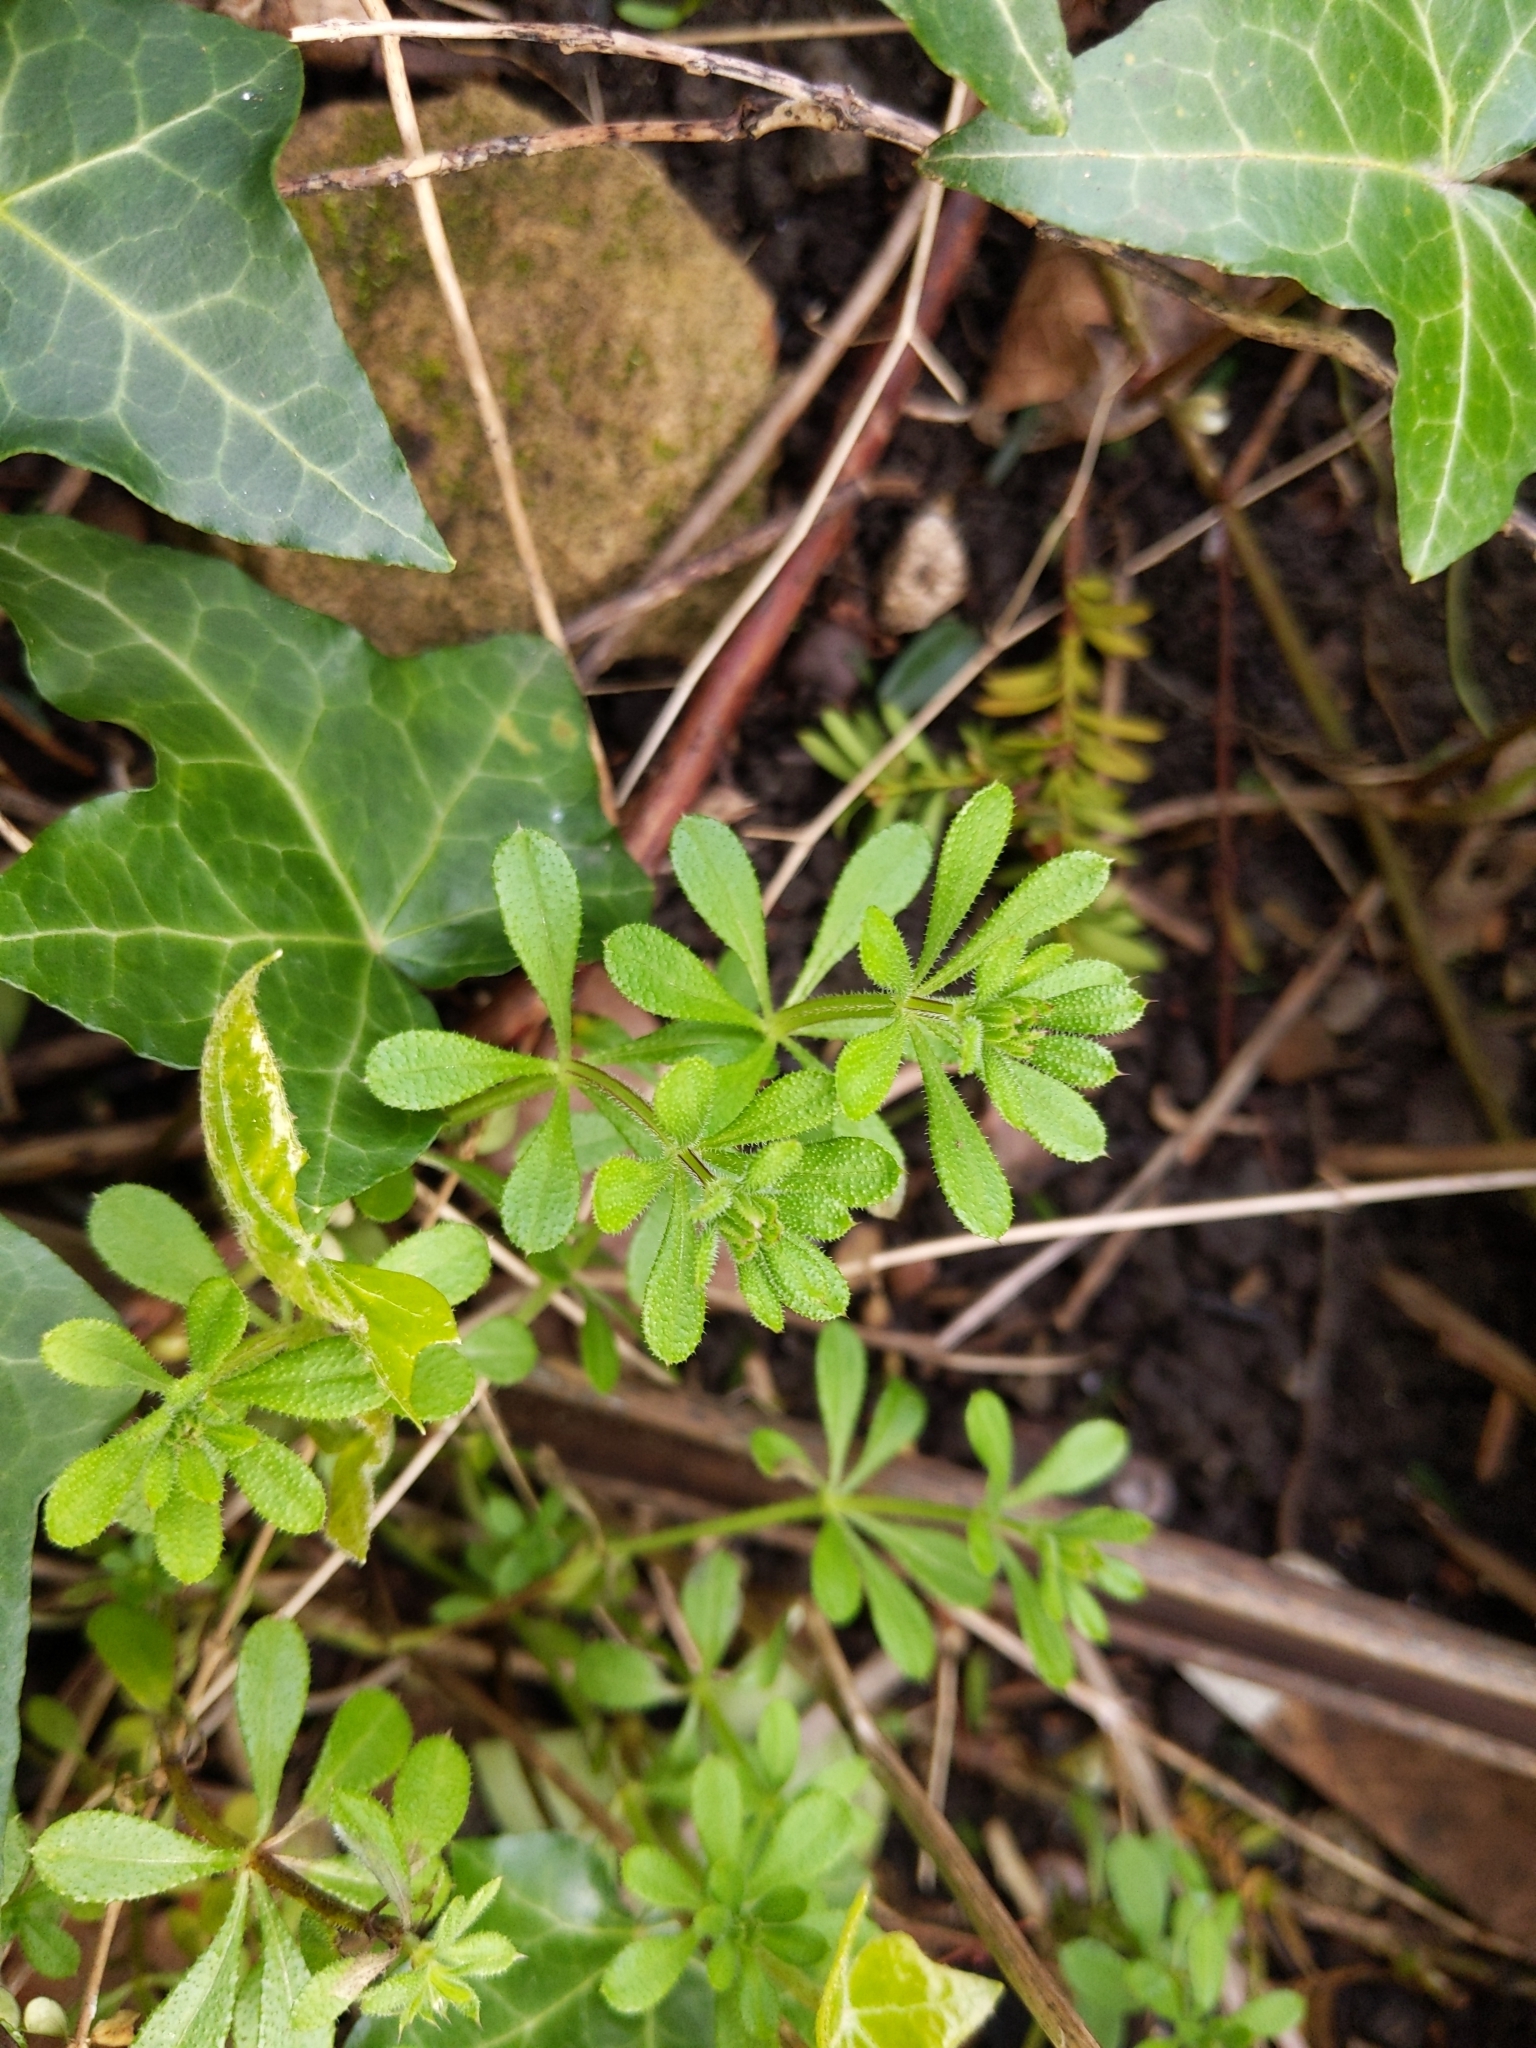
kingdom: Plantae
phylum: Tracheophyta
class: Magnoliopsida
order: Gentianales
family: Rubiaceae
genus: Galium
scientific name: Galium aparine
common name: Cleavers
